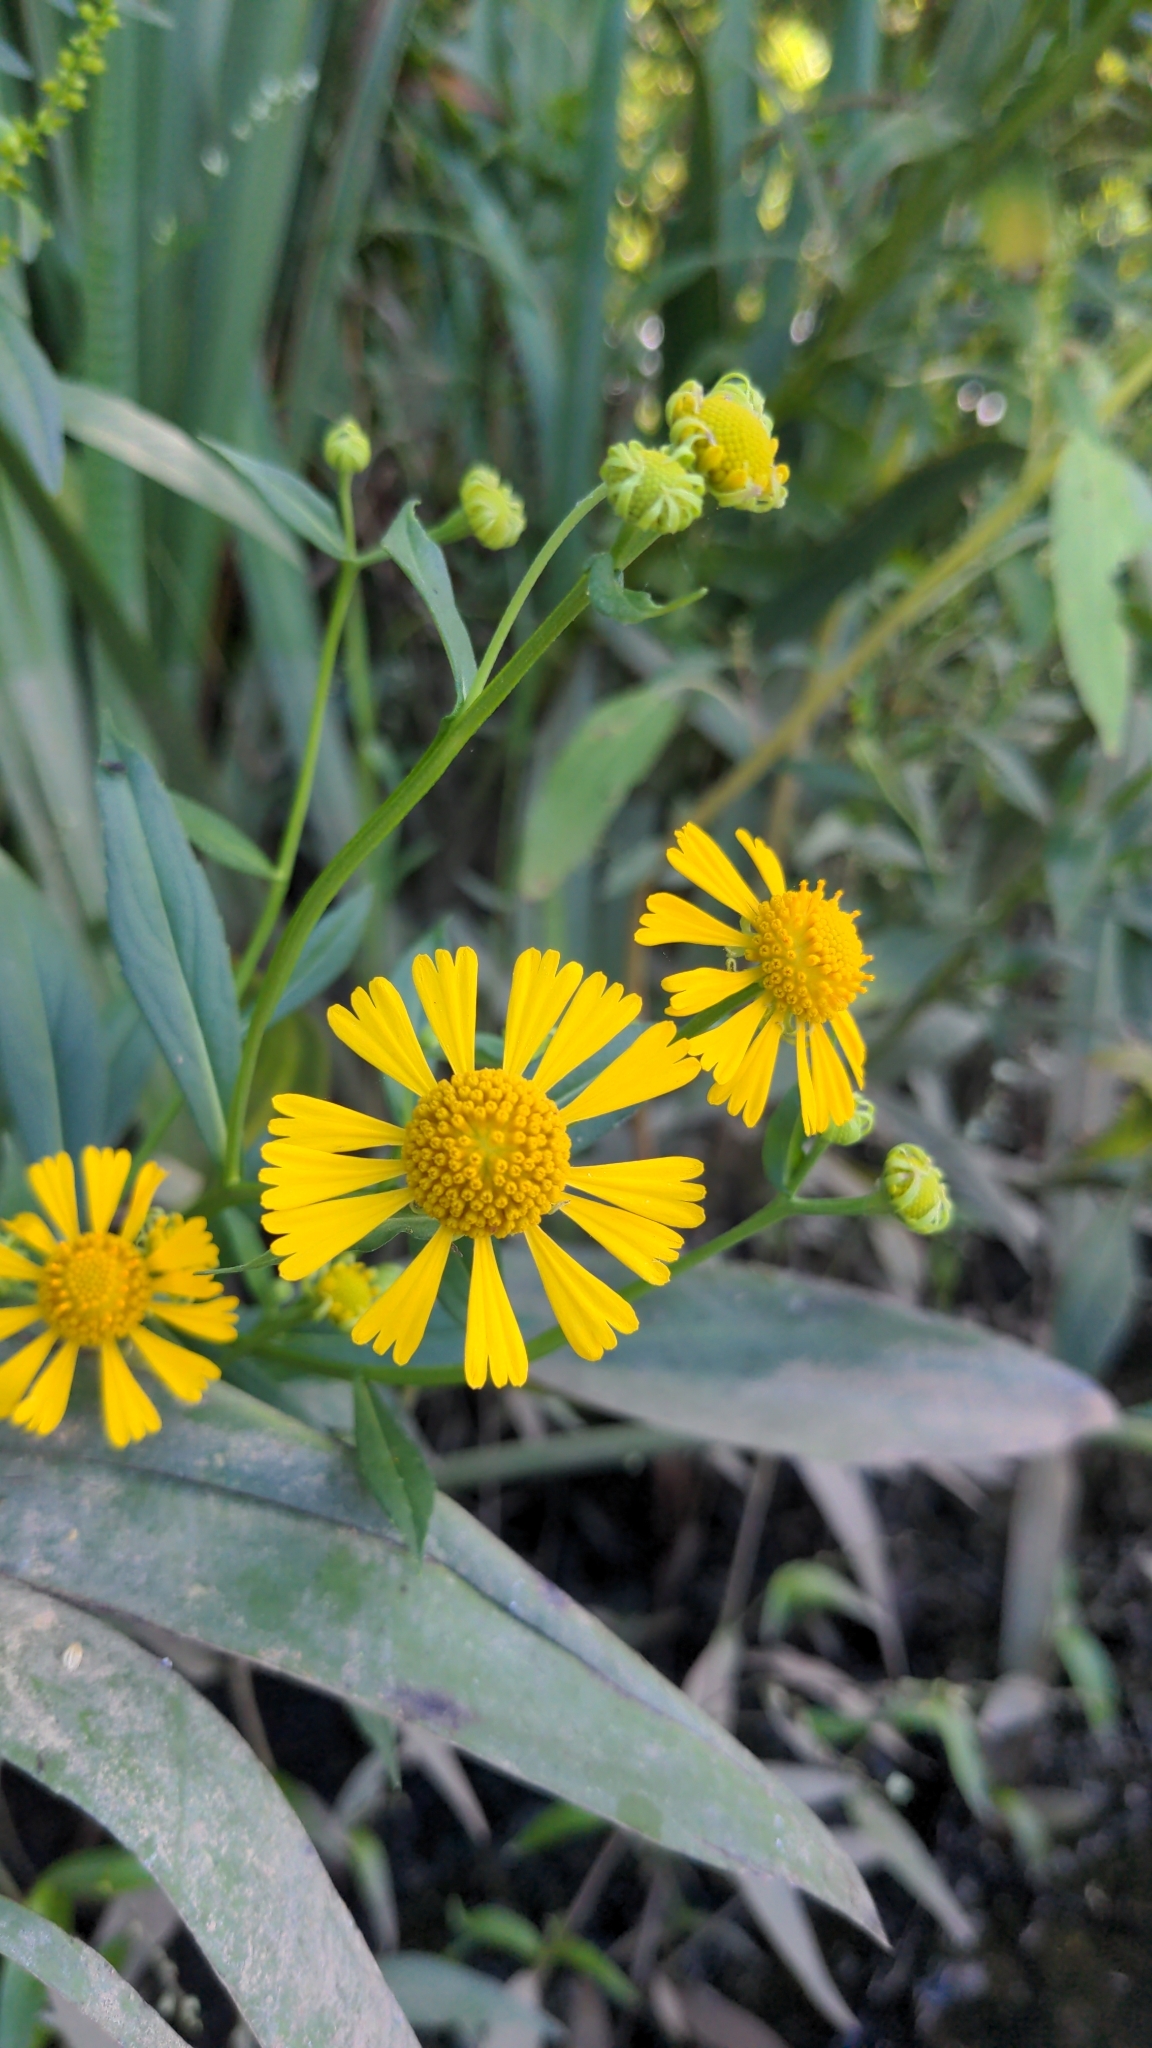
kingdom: Plantae
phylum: Tracheophyta
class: Magnoliopsida
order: Asterales
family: Asteraceae
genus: Helenium
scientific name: Helenium autumnale
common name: Sneezeweed
